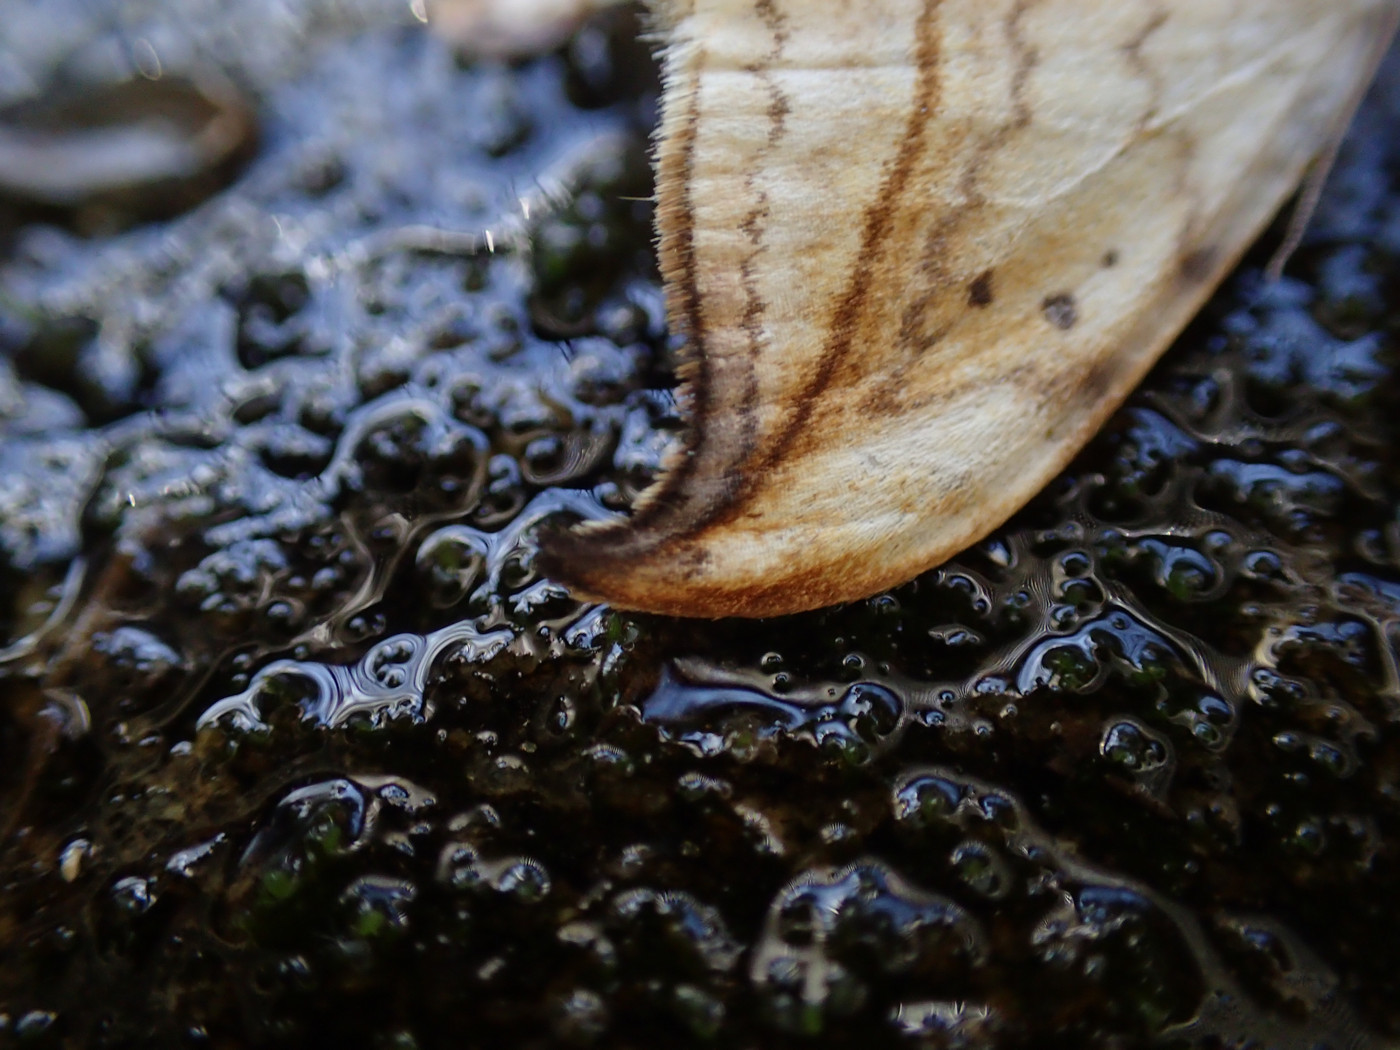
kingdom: Animalia
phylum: Arthropoda
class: Insecta
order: Lepidoptera
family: Drepanidae
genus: Drepana
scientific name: Drepana arcuata
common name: Arched hooktip moth
